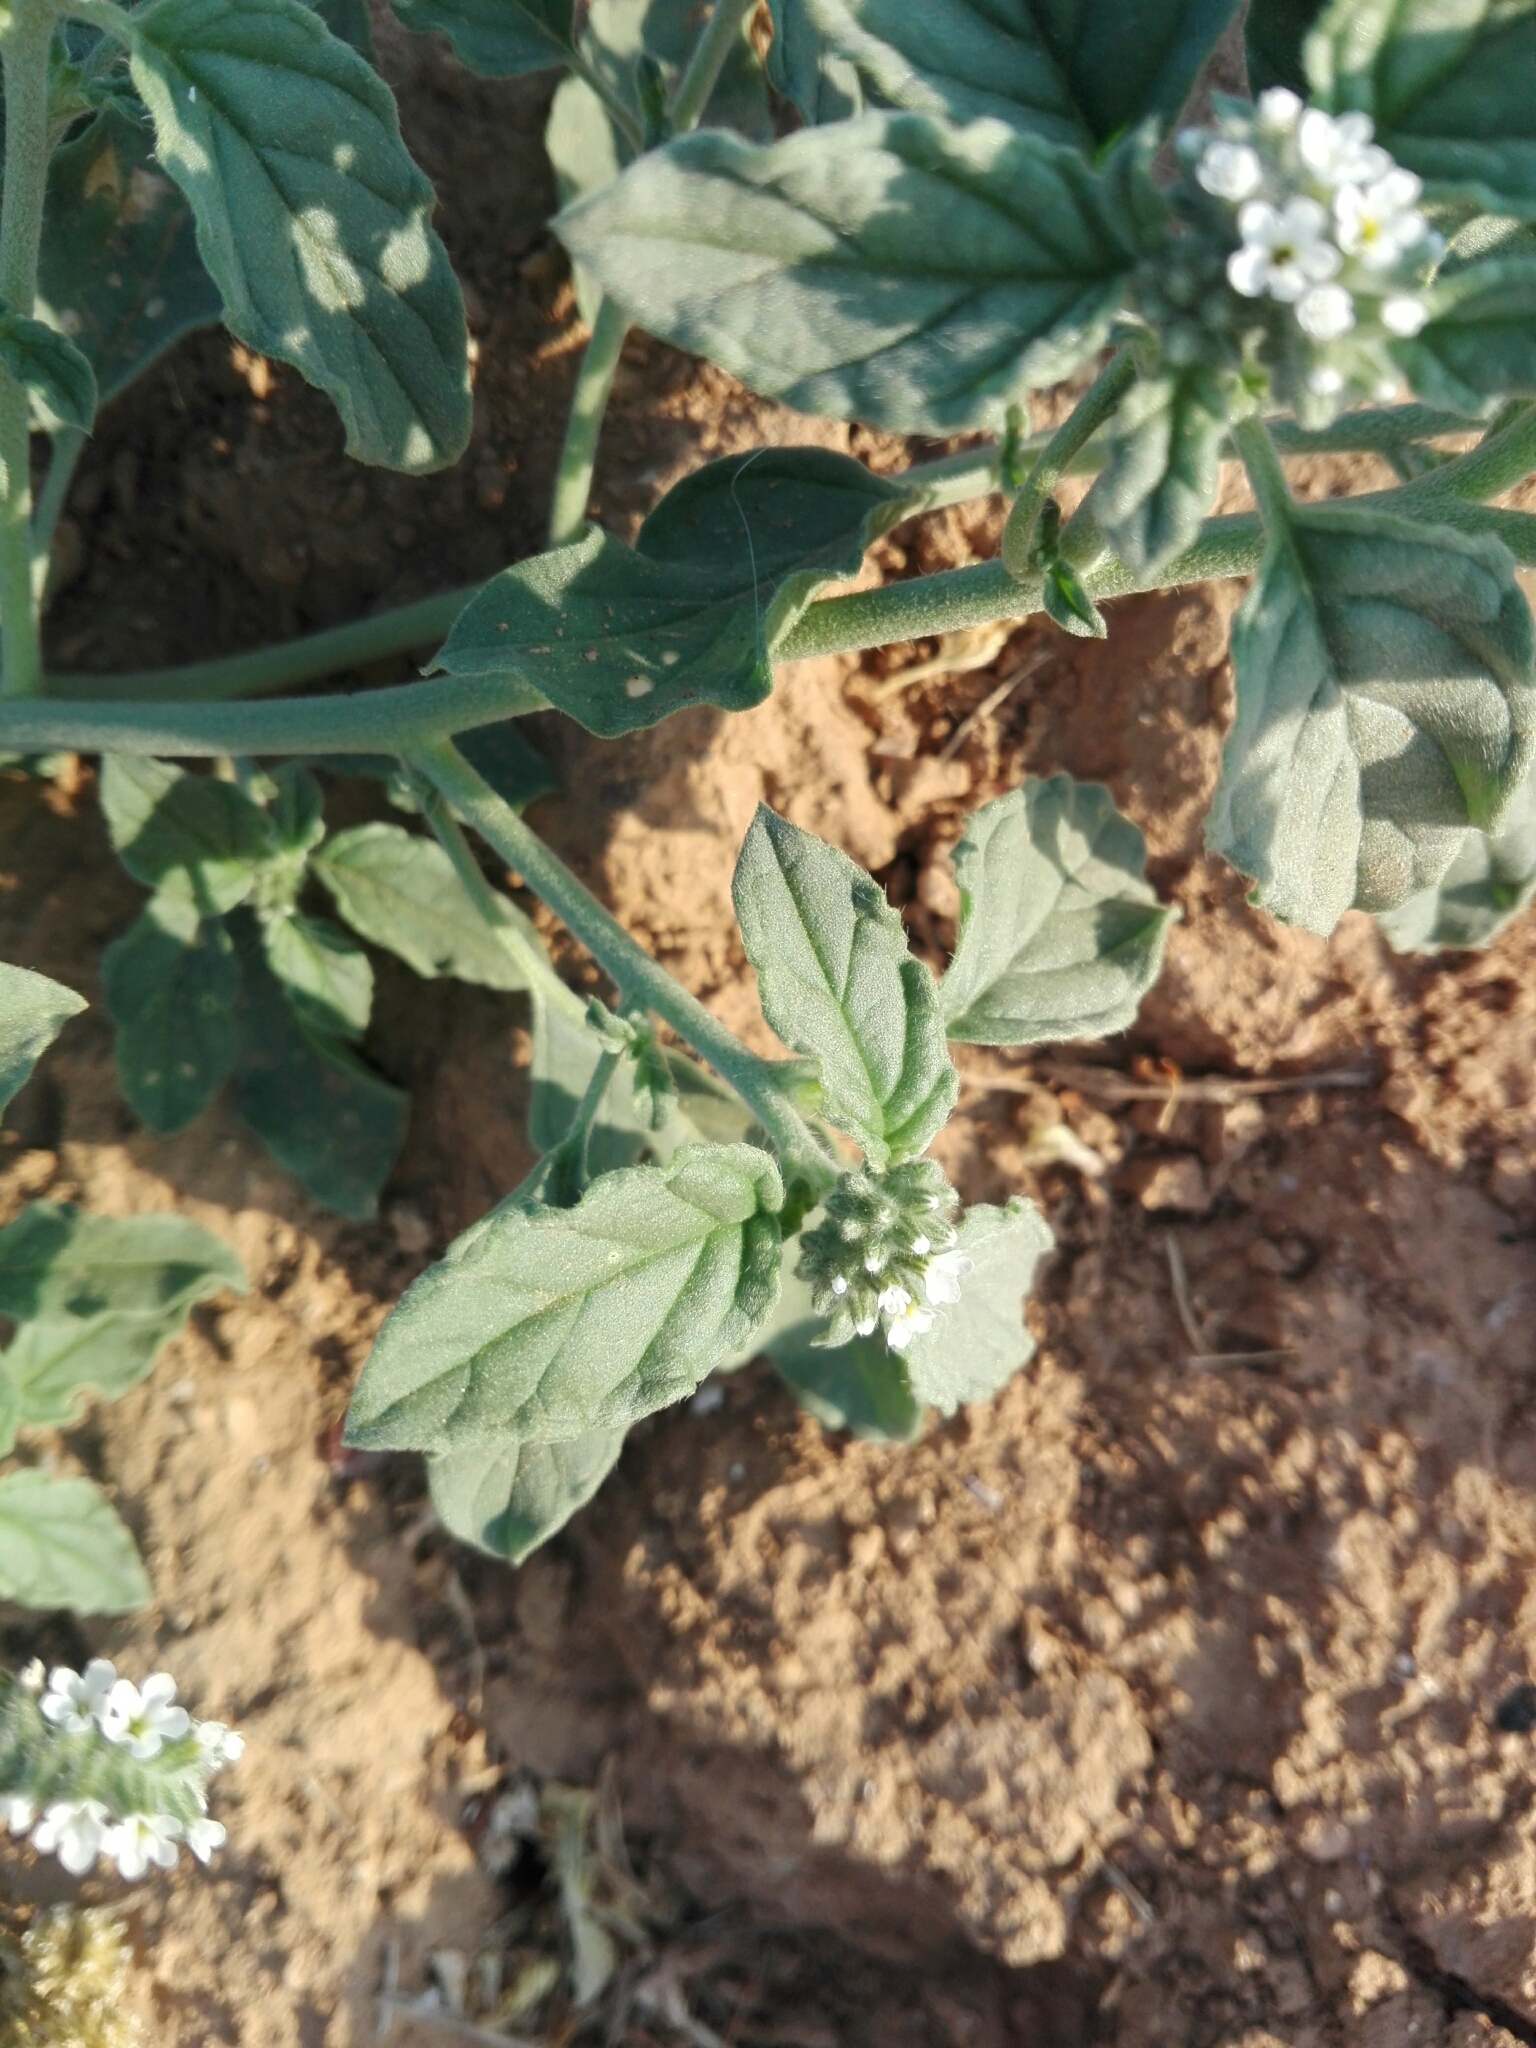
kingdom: Plantae
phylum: Tracheophyta
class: Magnoliopsida
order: Boraginales
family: Heliotropiaceae
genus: Heliotropium
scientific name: Heliotropium europaeum
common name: European heliotrope
